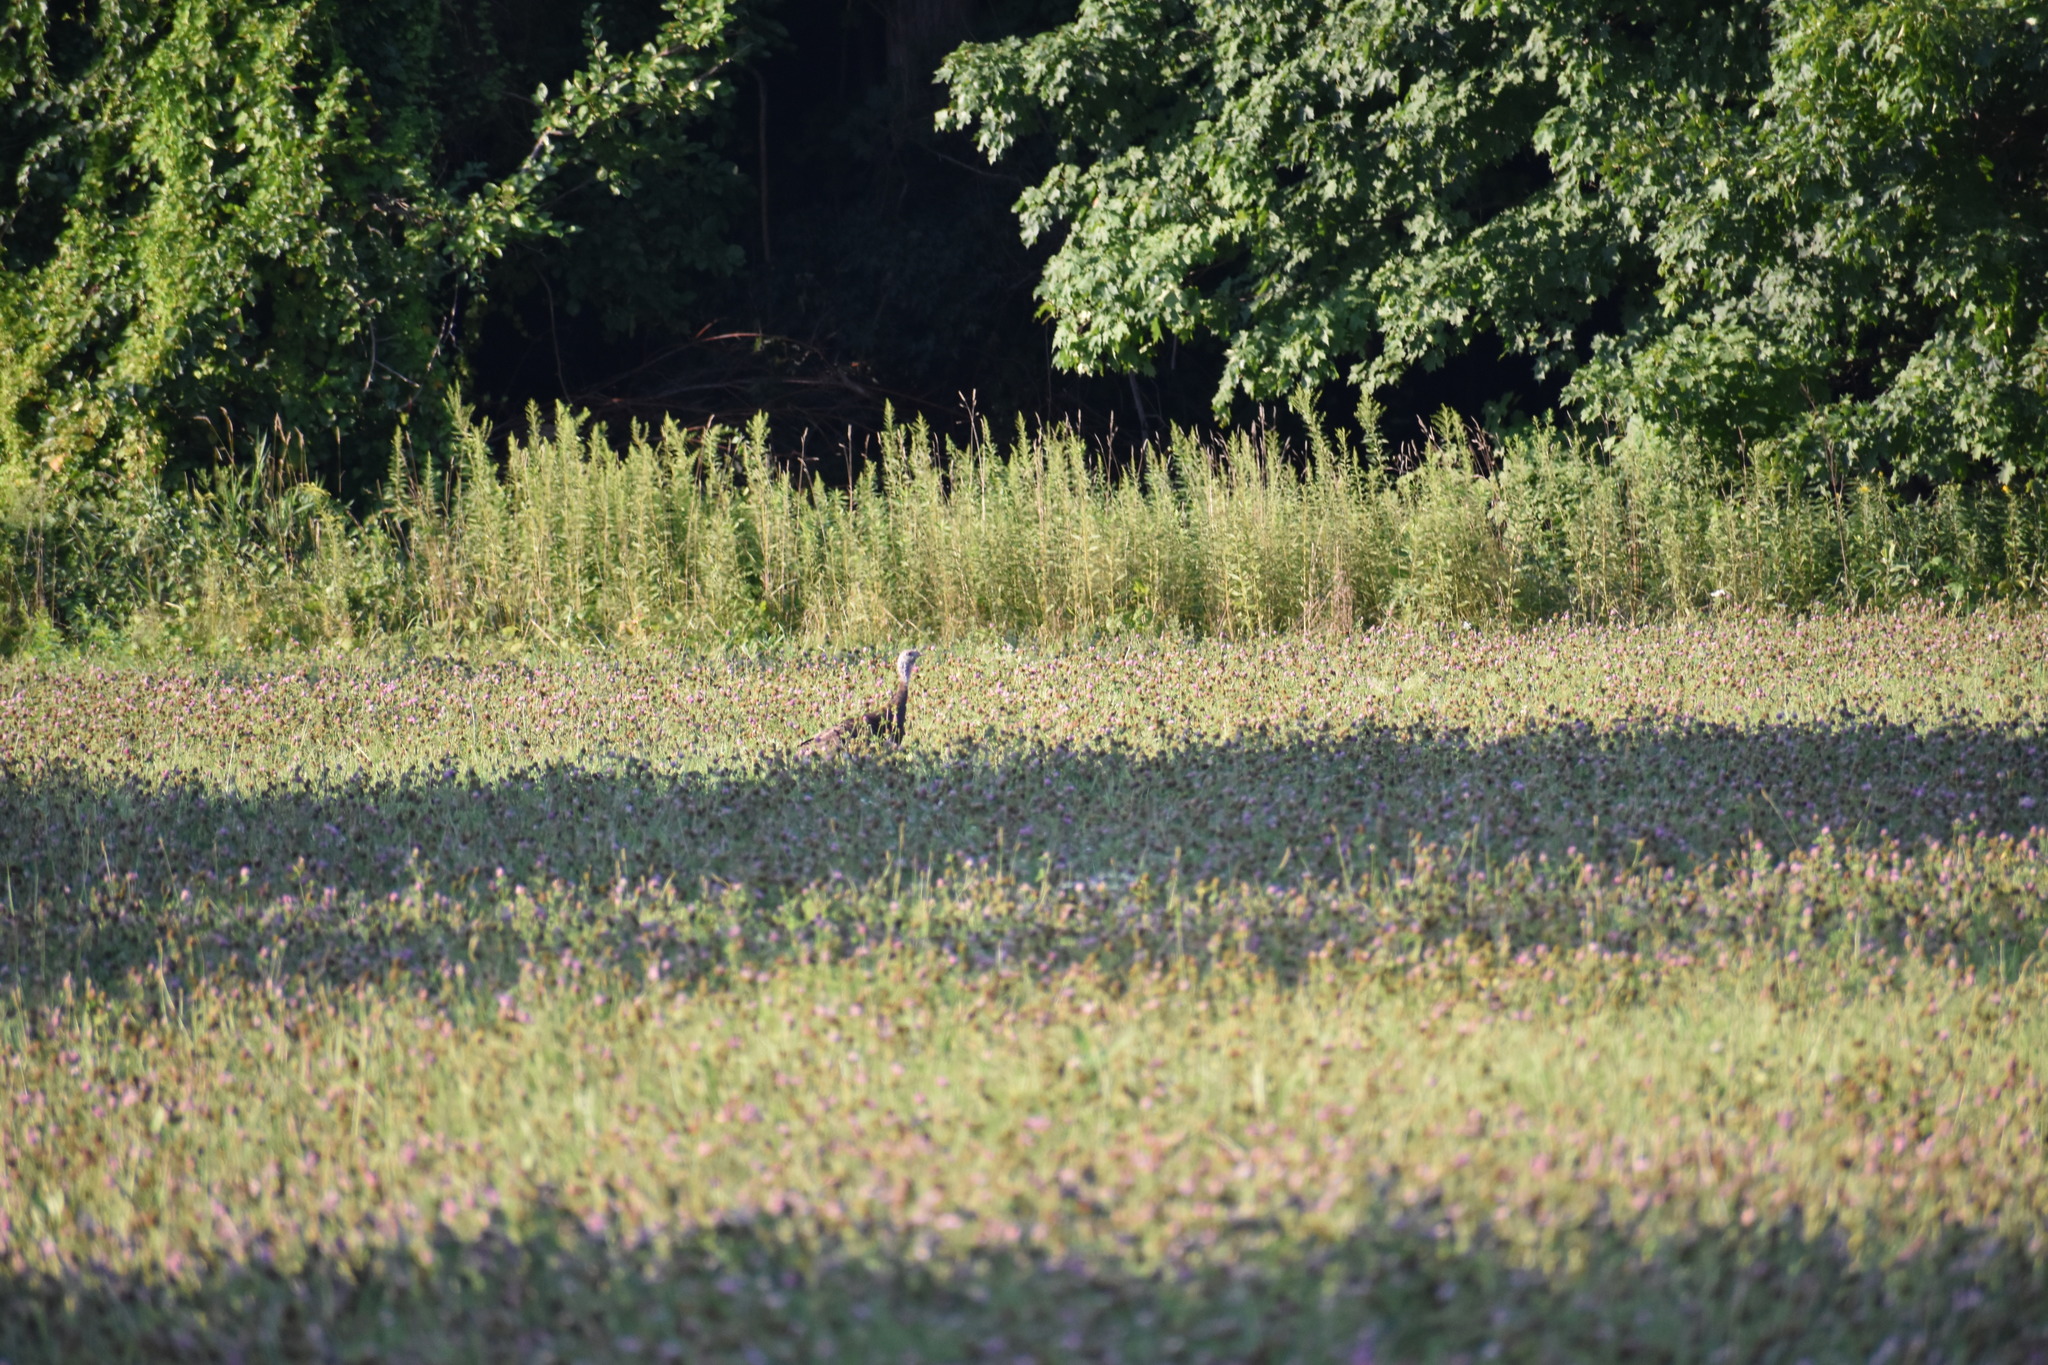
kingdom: Animalia
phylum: Chordata
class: Aves
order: Galliformes
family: Phasianidae
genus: Meleagris
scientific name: Meleagris gallopavo
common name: Wild turkey
